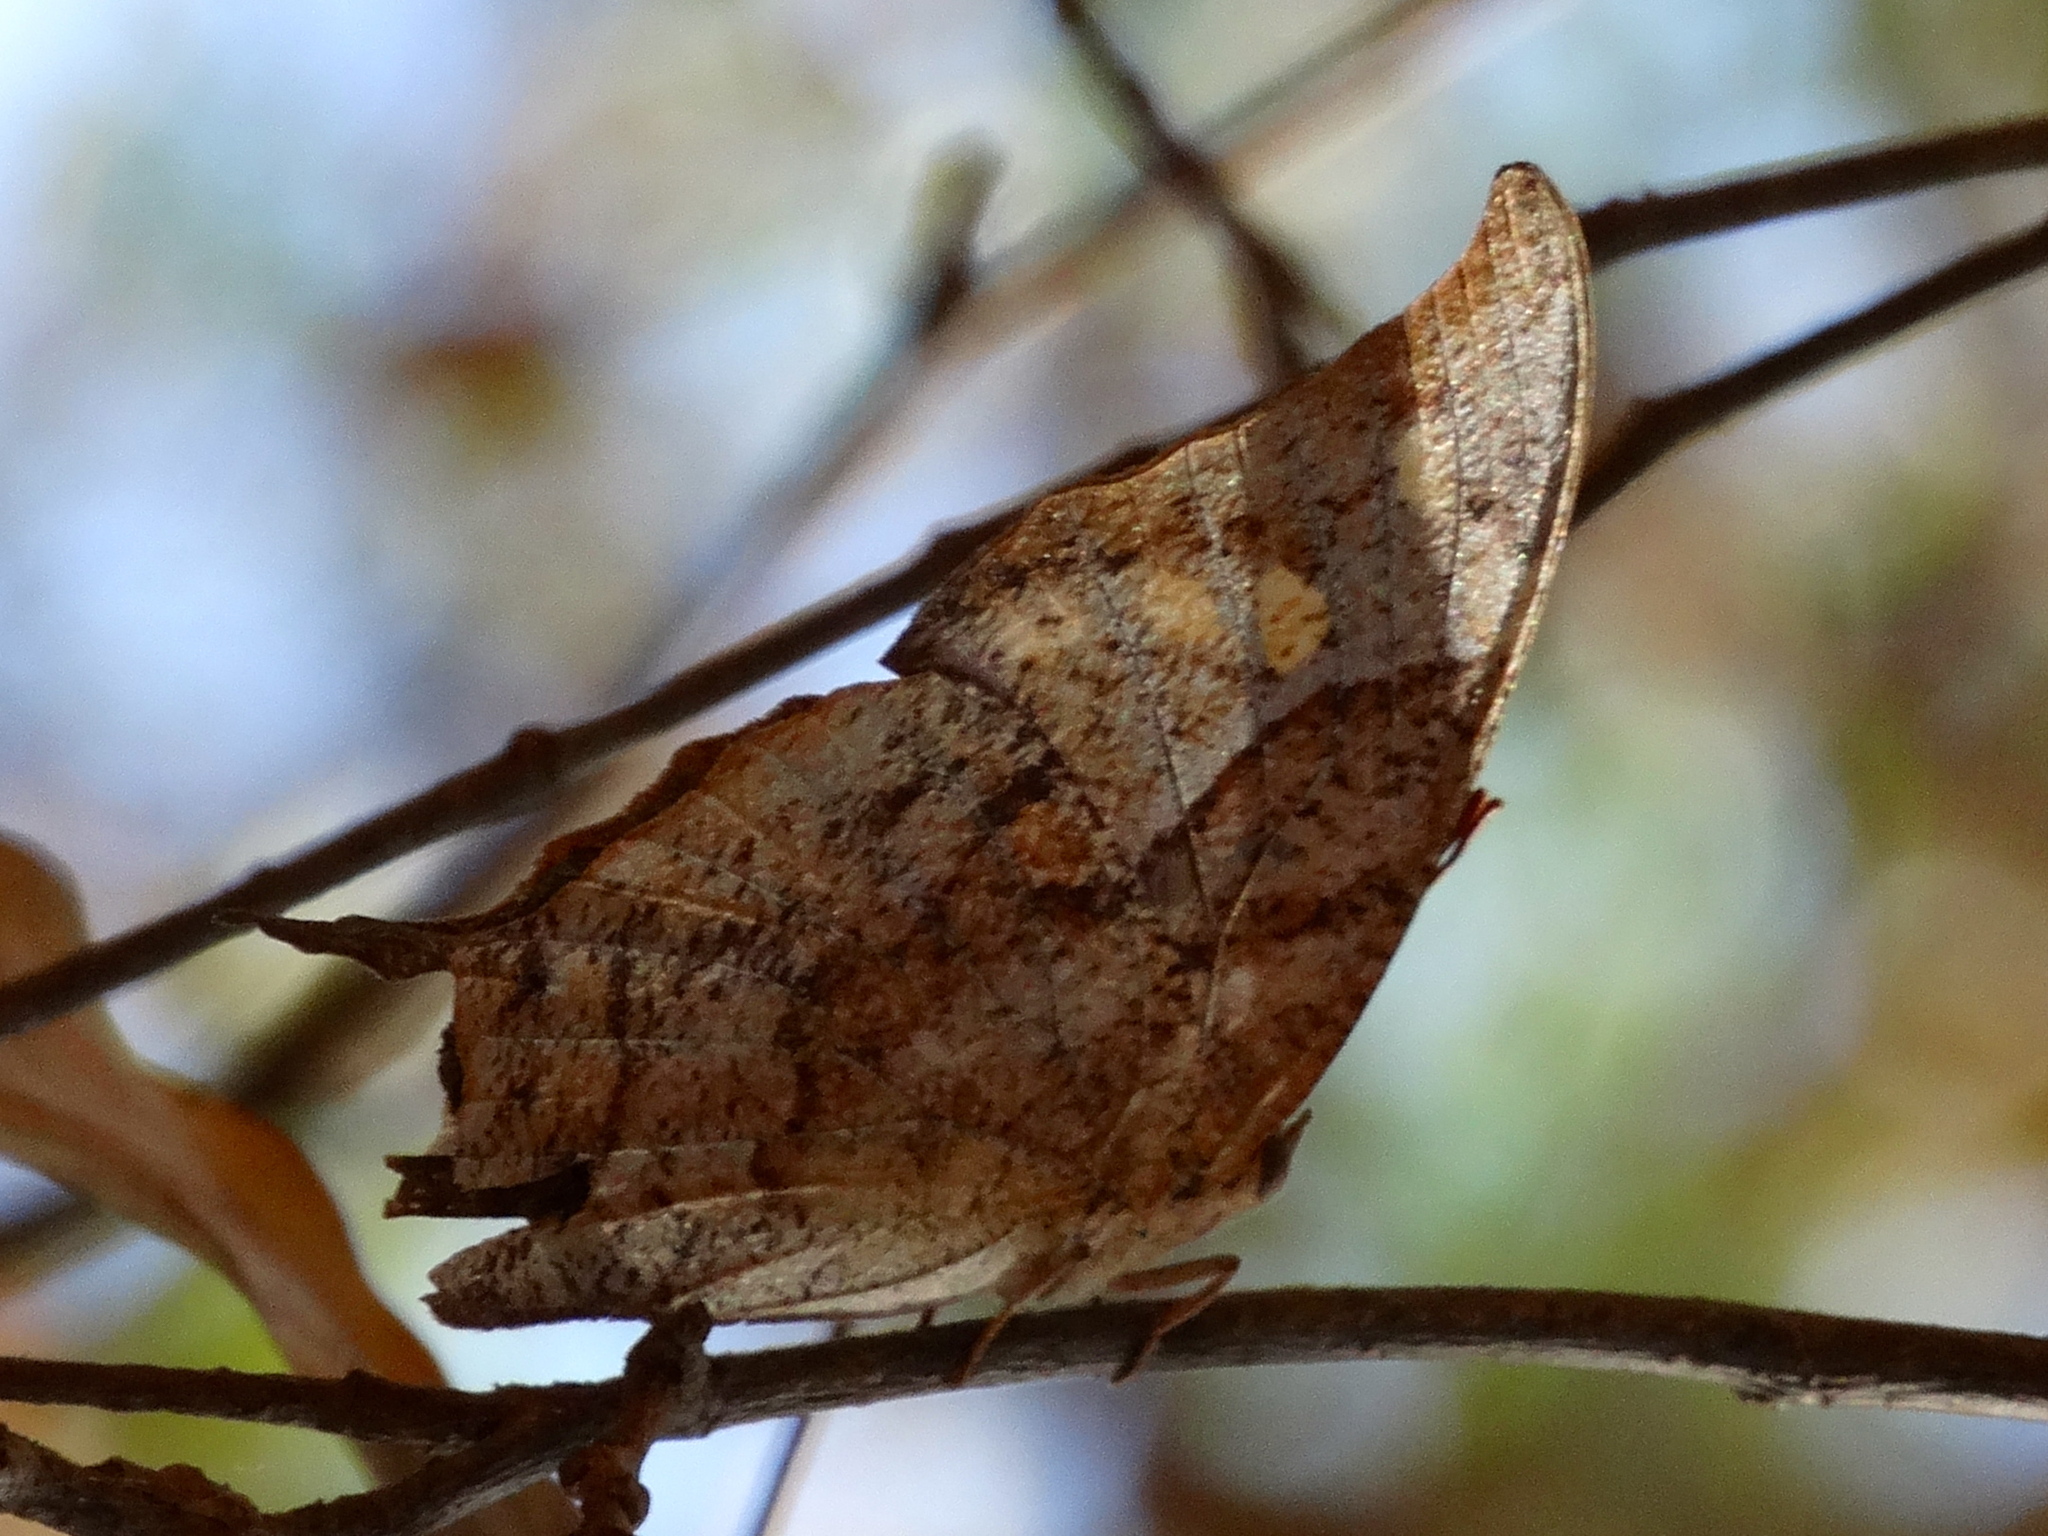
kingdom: Animalia
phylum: Arthropoda
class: Insecta
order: Lepidoptera
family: Nymphalidae
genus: Anaea
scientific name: Anaea pithyusa
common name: Pale-spotted leafwing
